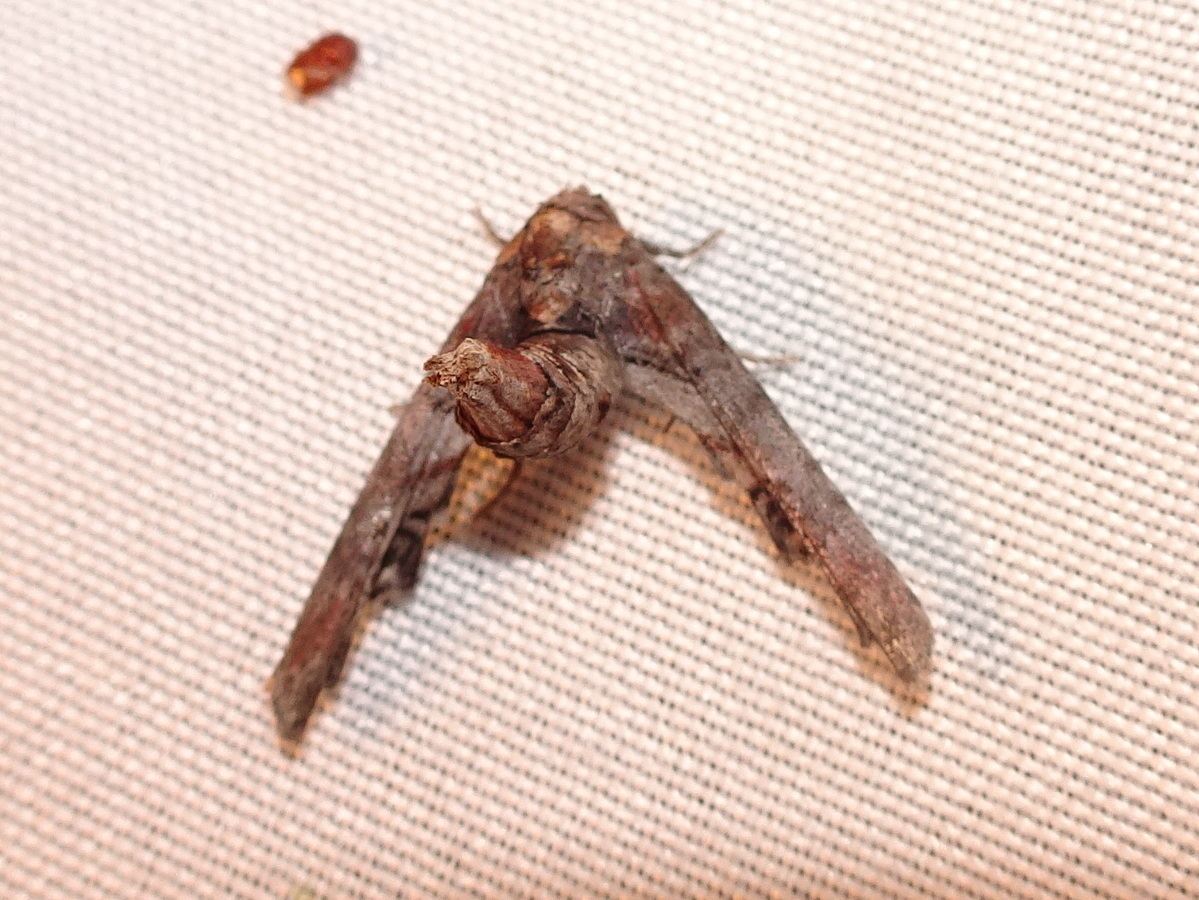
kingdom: Animalia
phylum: Arthropoda
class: Insecta
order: Lepidoptera
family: Euteliidae
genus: Marathyssa
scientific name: Marathyssa inficita
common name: Dark marathyssa moth
